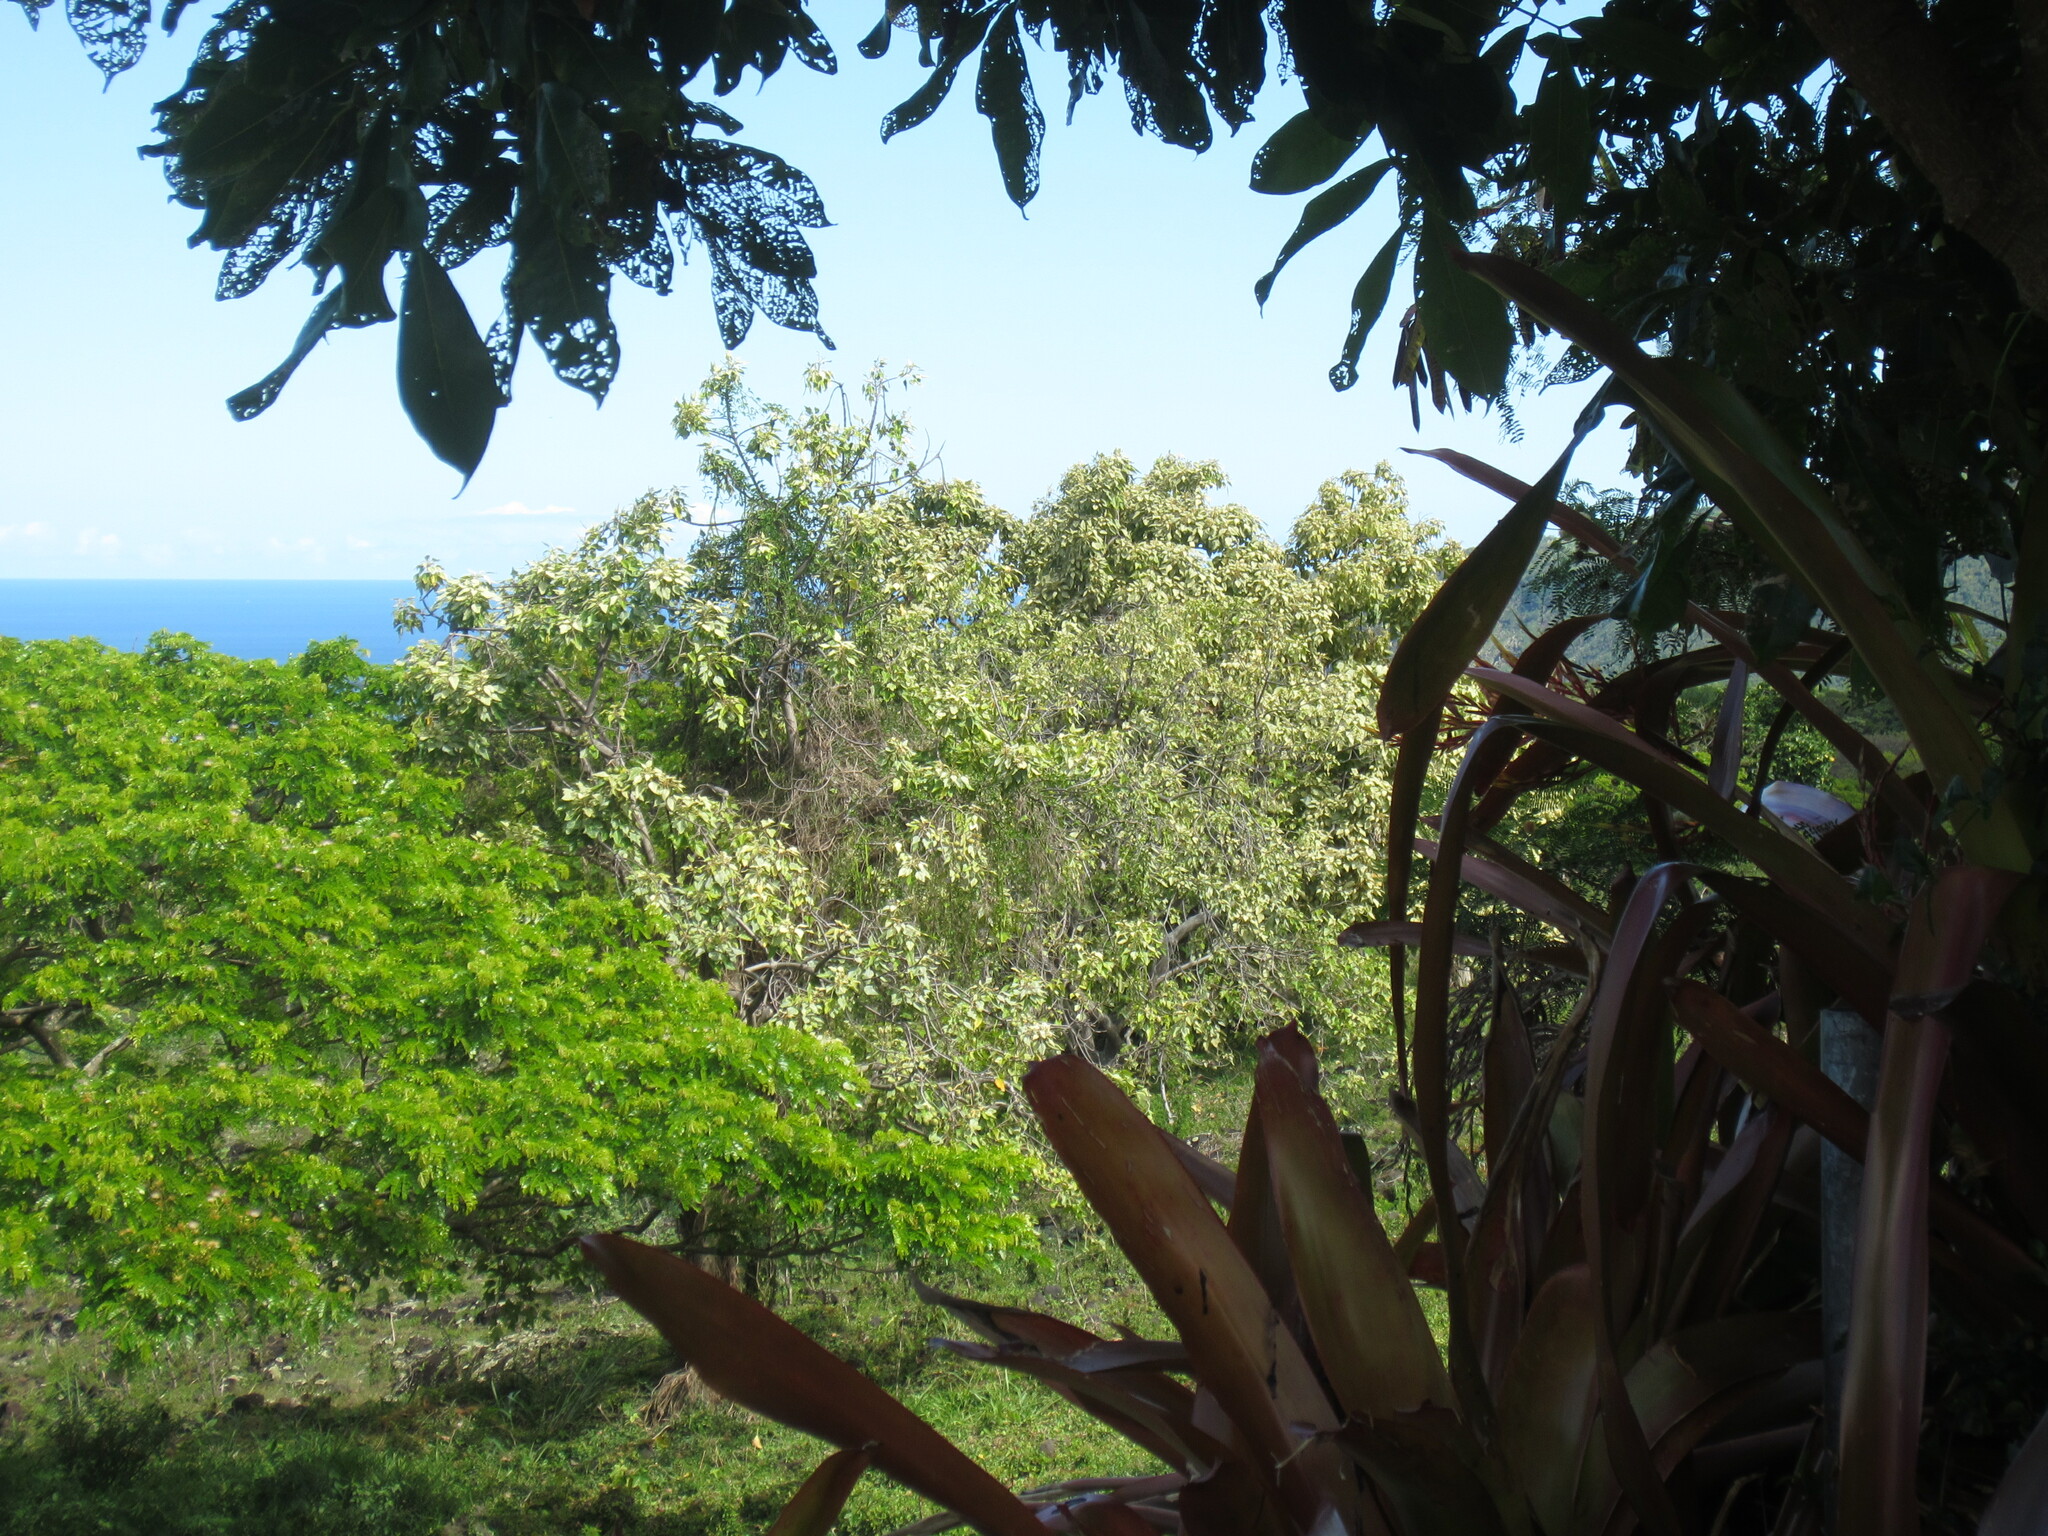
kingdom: Plantae
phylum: Tracheophyta
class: Magnoliopsida
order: Malpighiales
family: Euphorbiaceae
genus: Aleurites
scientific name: Aleurites moluccanus
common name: Candlenut tree
